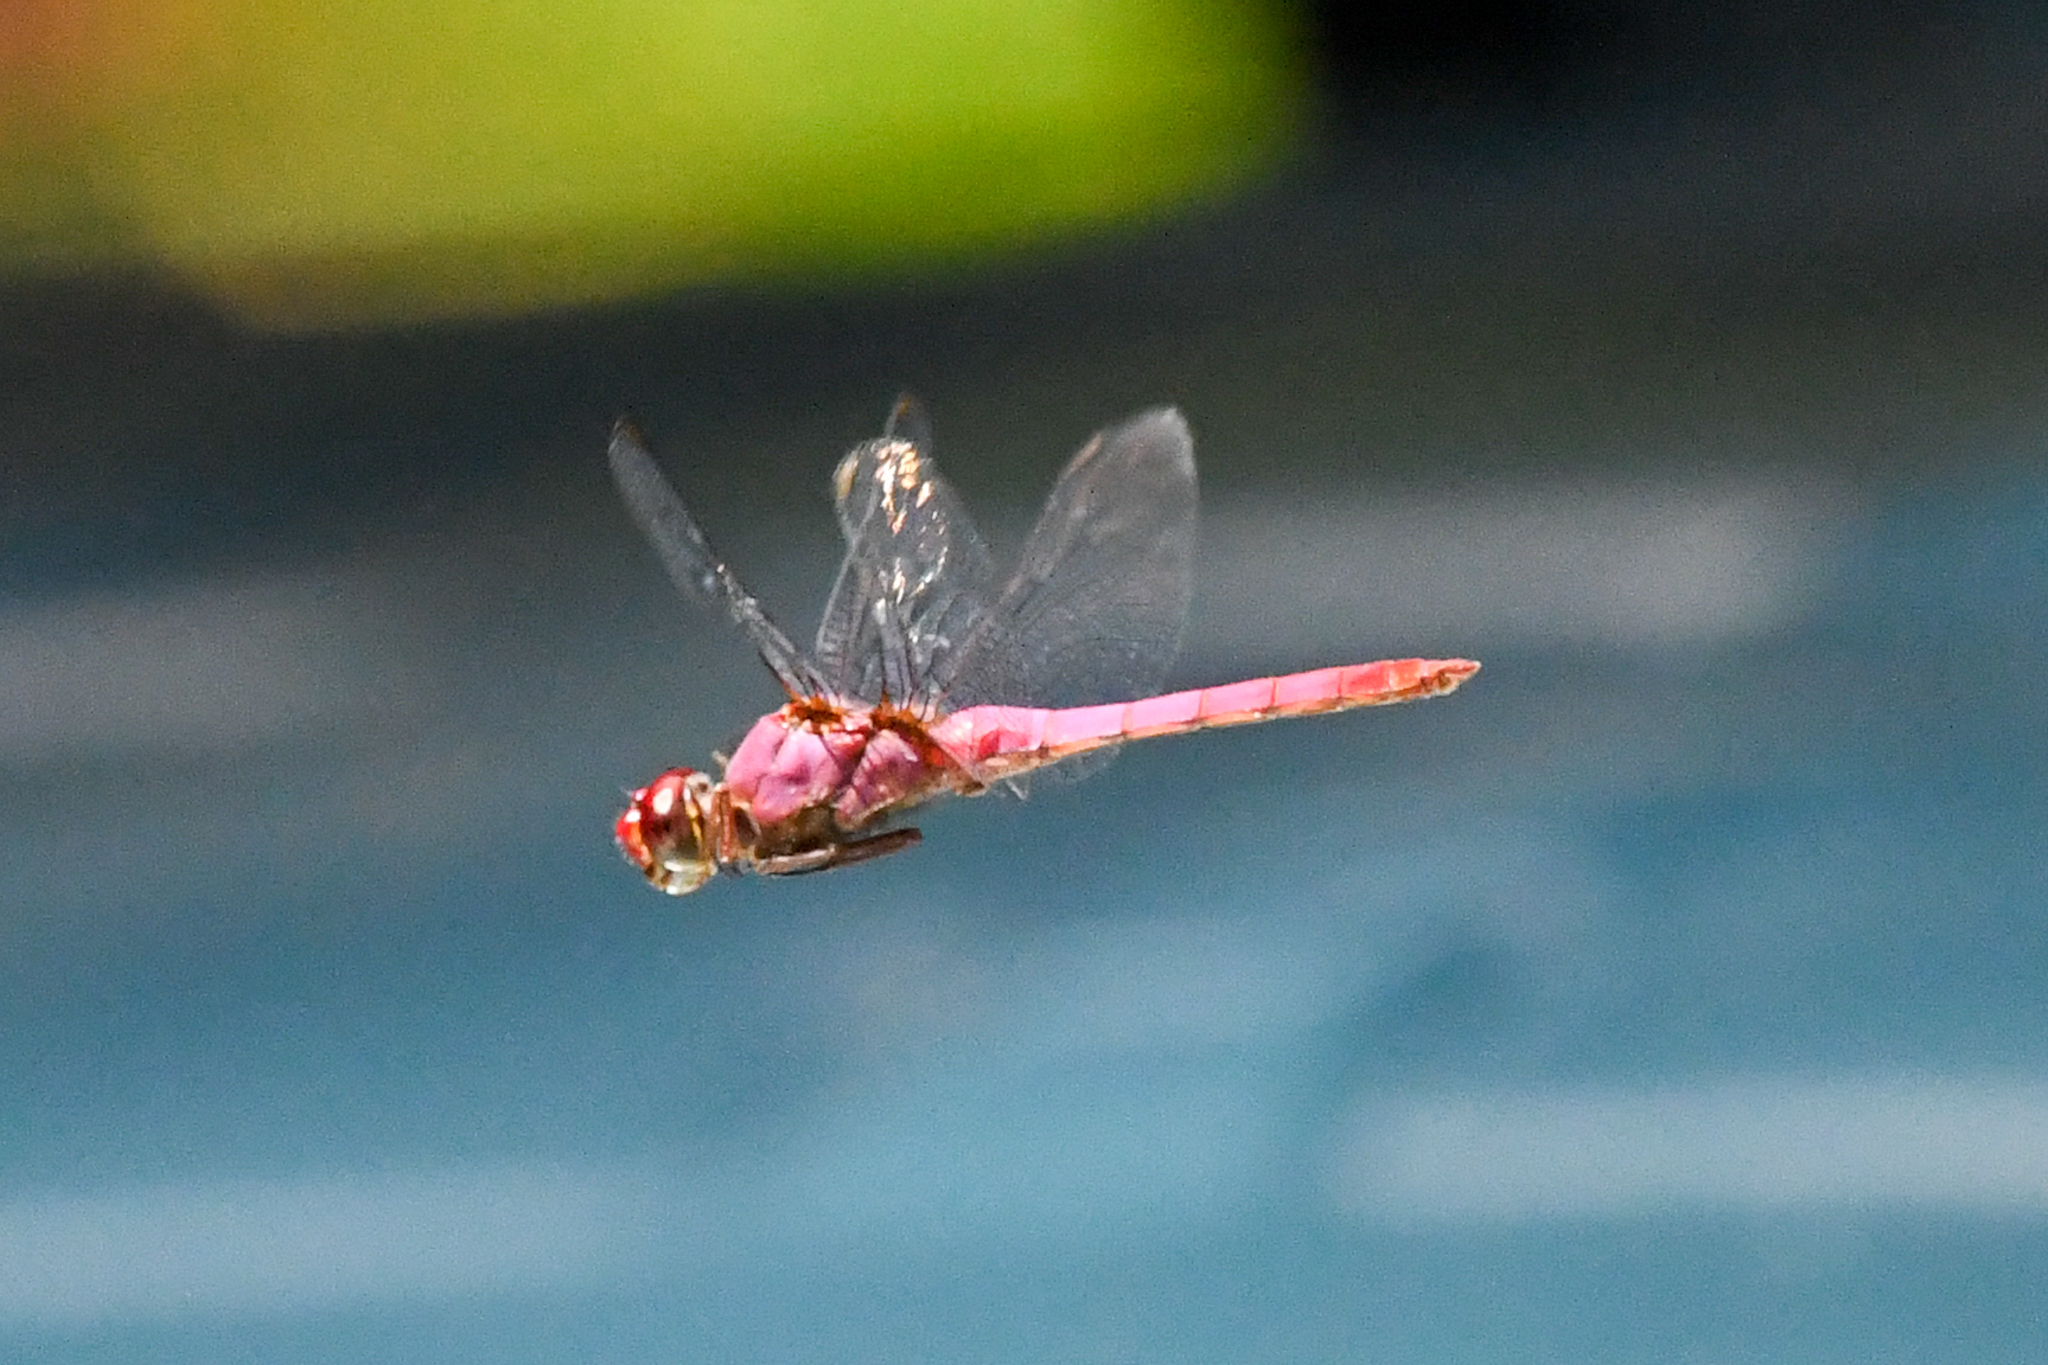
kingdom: Animalia
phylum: Arthropoda
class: Insecta
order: Odonata
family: Libellulidae
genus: Orthemis
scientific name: Orthemis discolor
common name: Carmine skimmer
